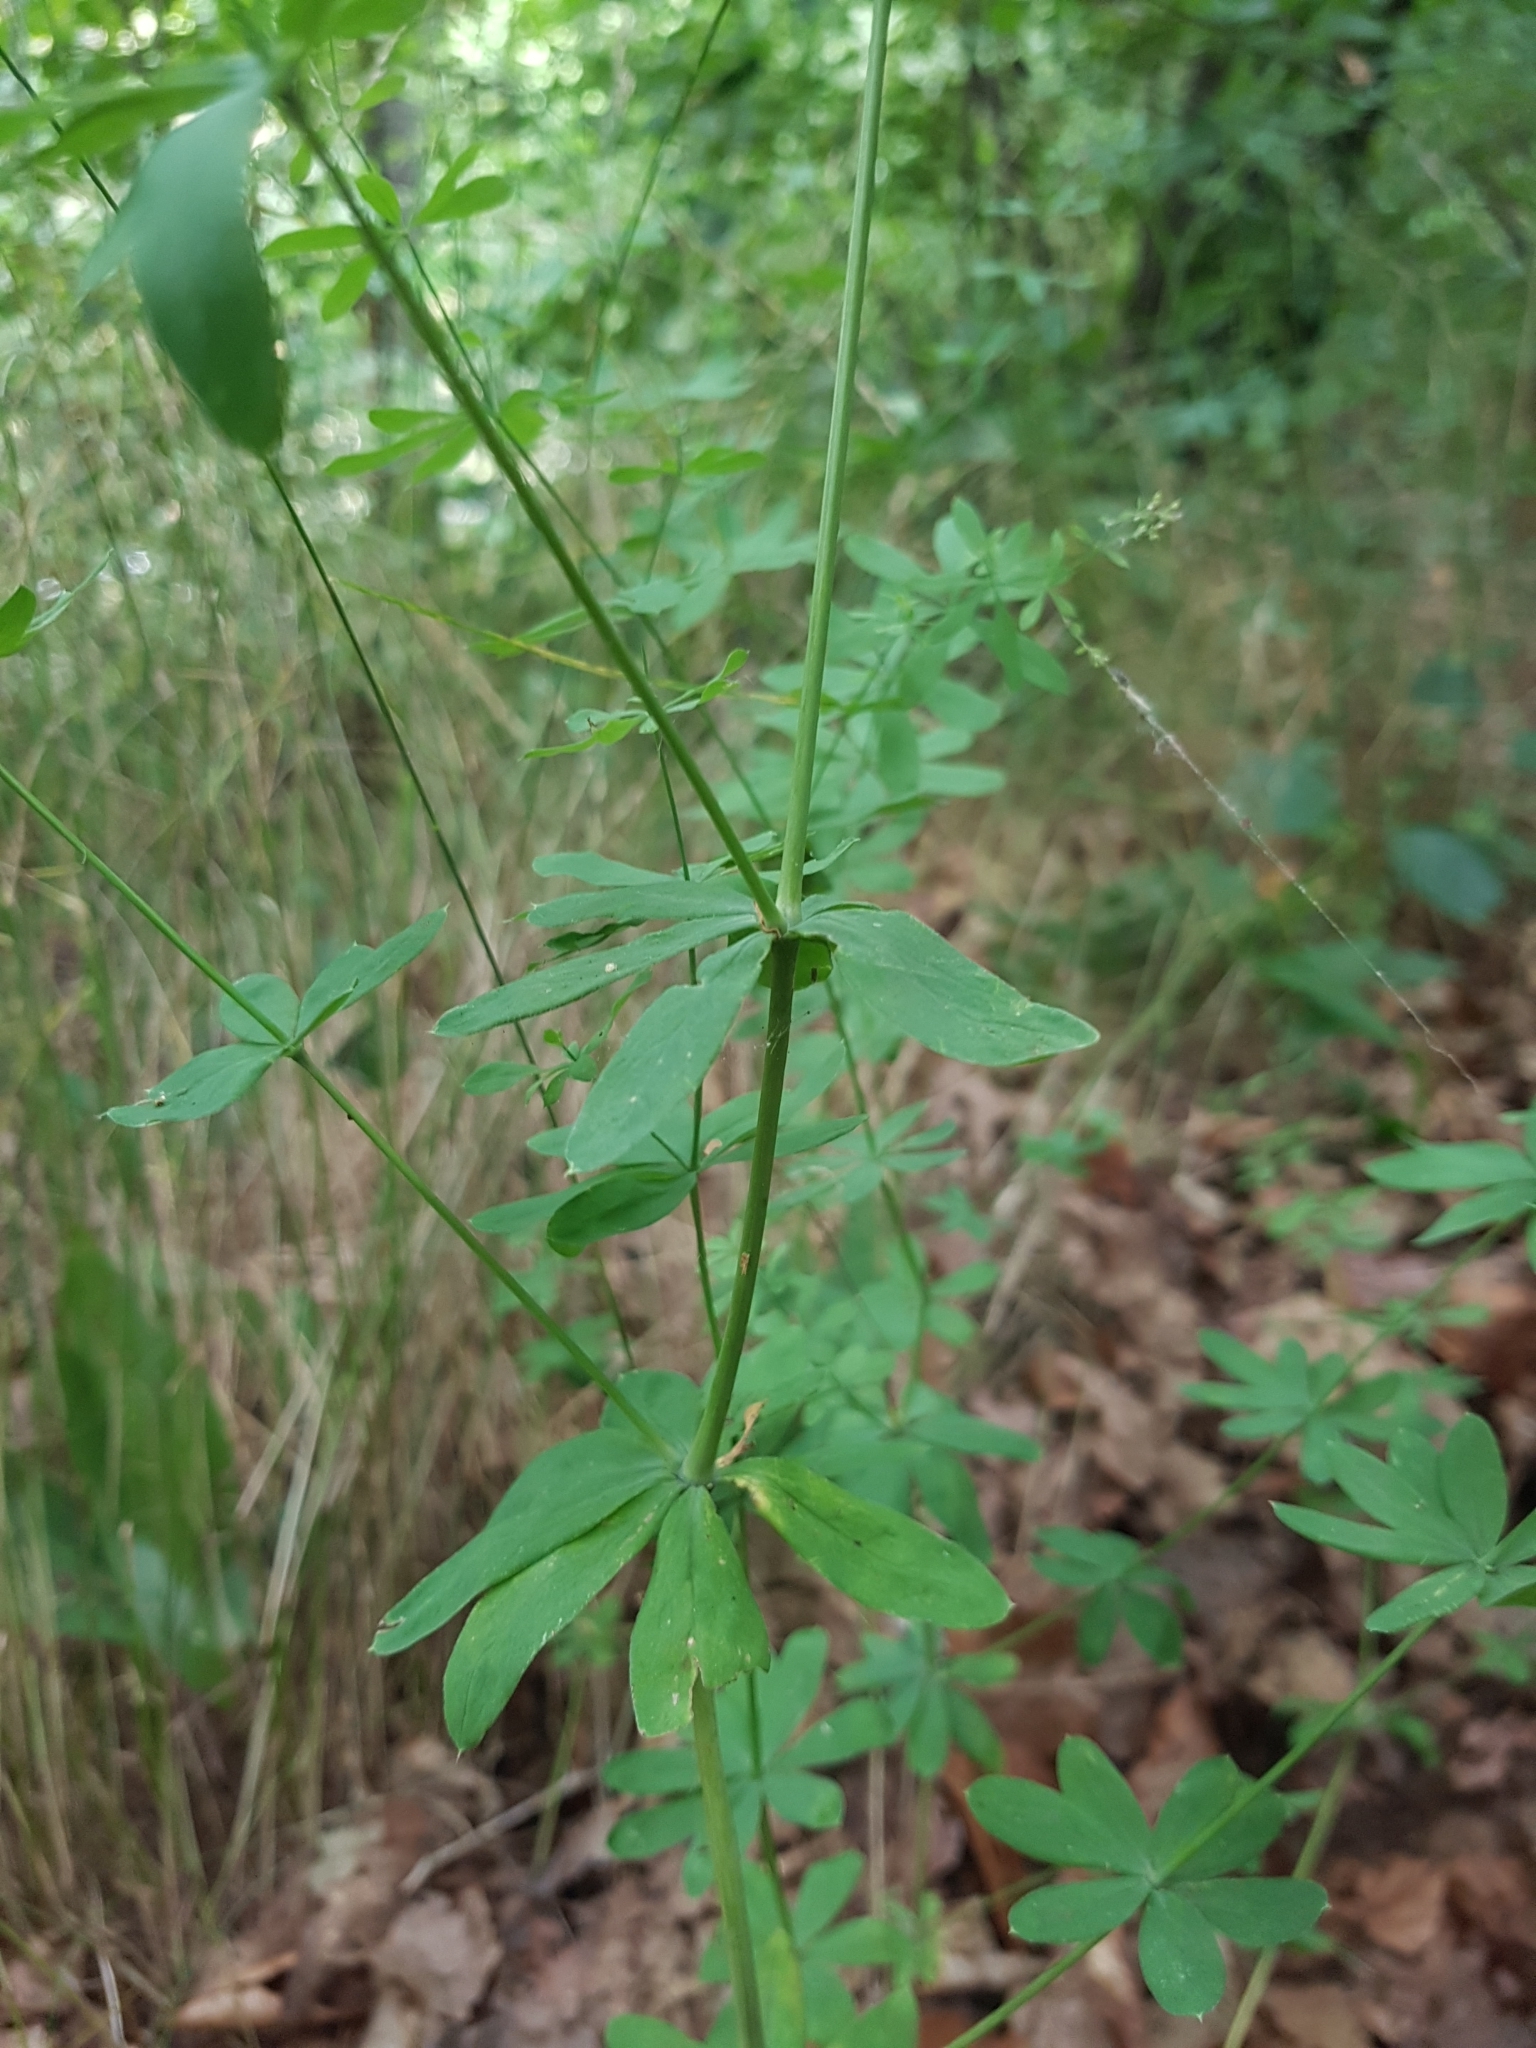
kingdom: Plantae
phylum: Tracheophyta
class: Magnoliopsida
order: Gentianales
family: Rubiaceae
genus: Galium
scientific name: Galium sylvaticum
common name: Wood bedstraw
